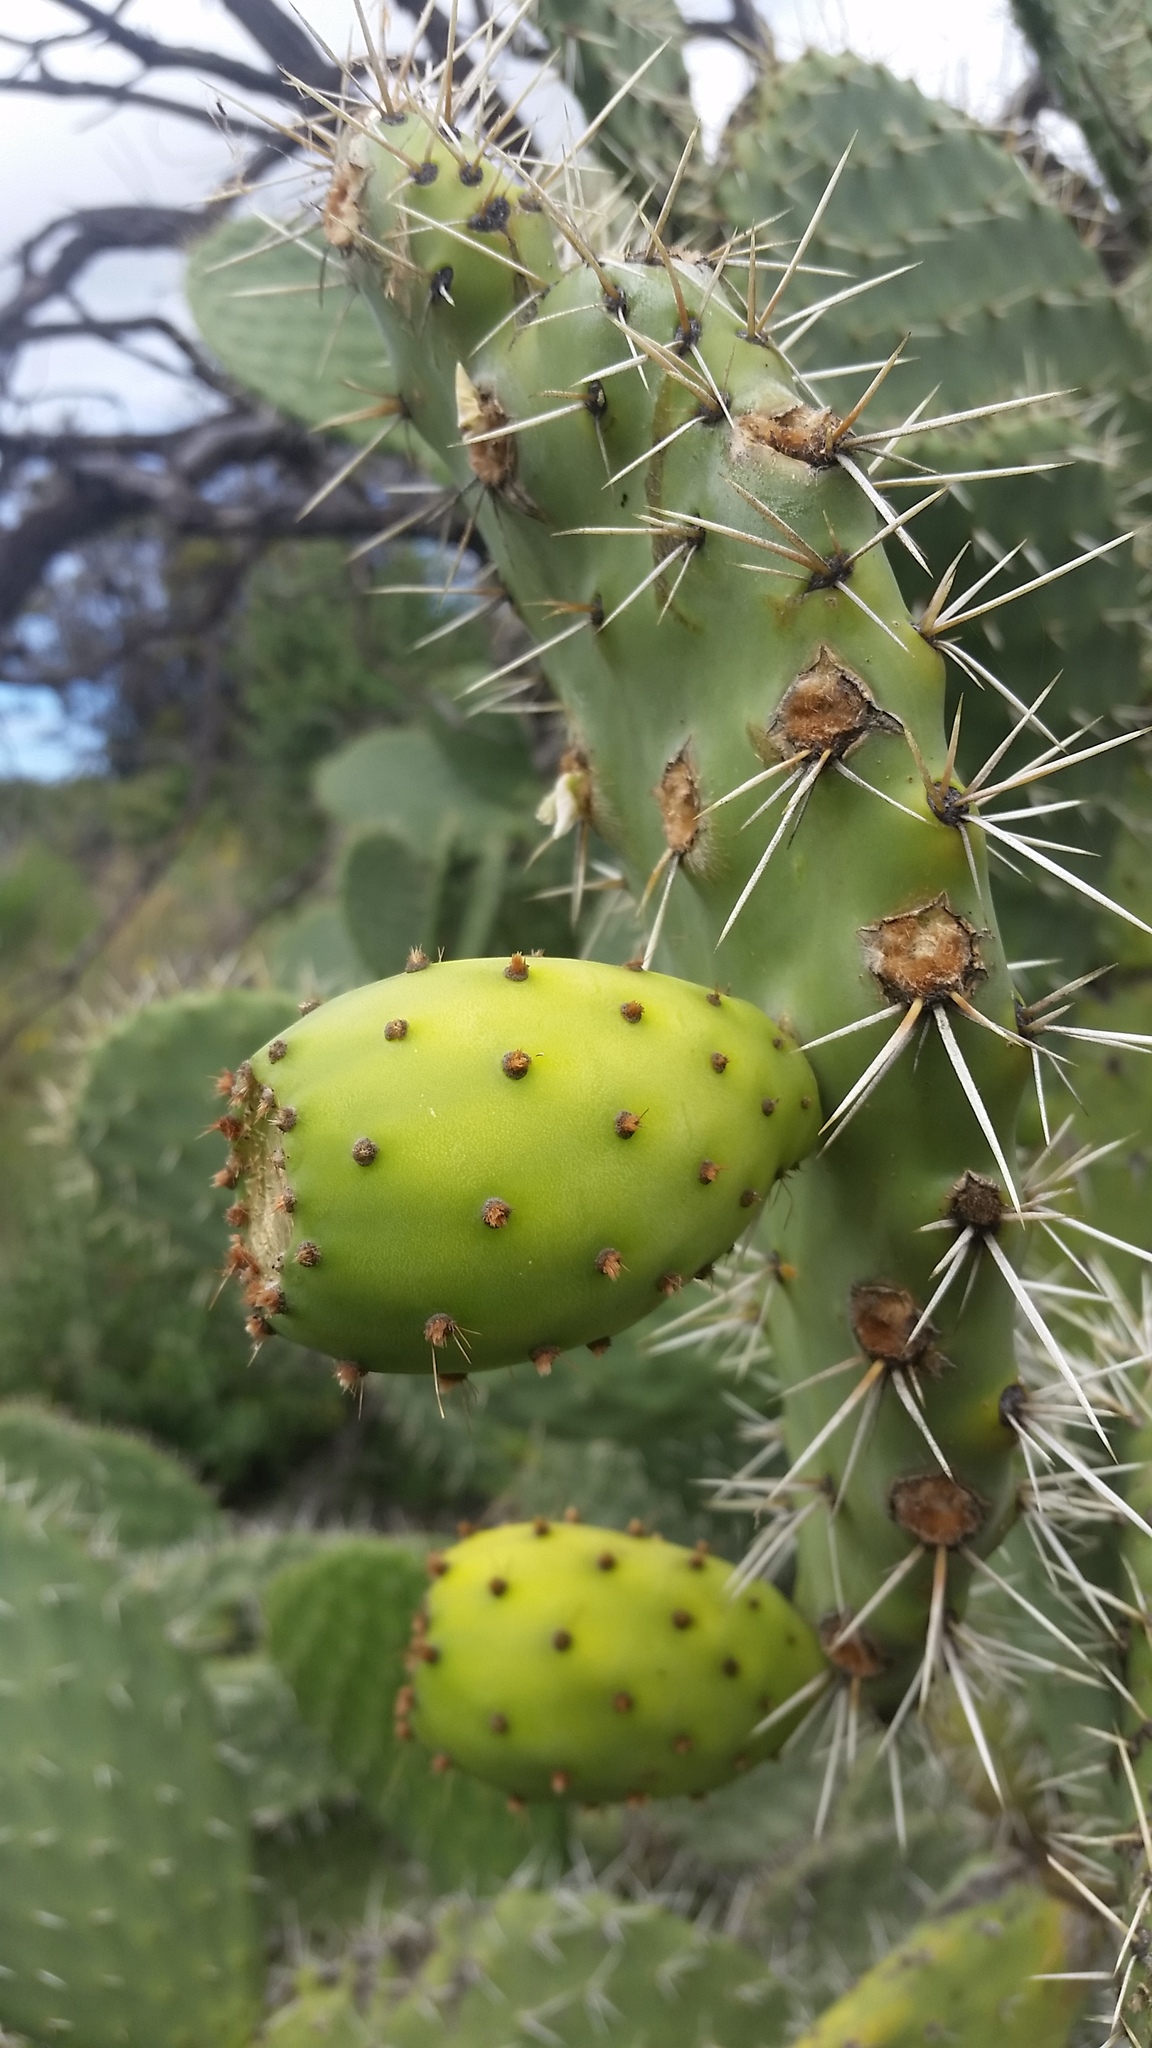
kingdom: Plantae
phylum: Tracheophyta
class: Magnoliopsida
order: Caryophyllales
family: Cactaceae
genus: Opuntia
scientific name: Opuntia ficus-indica
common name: Barbary fig
